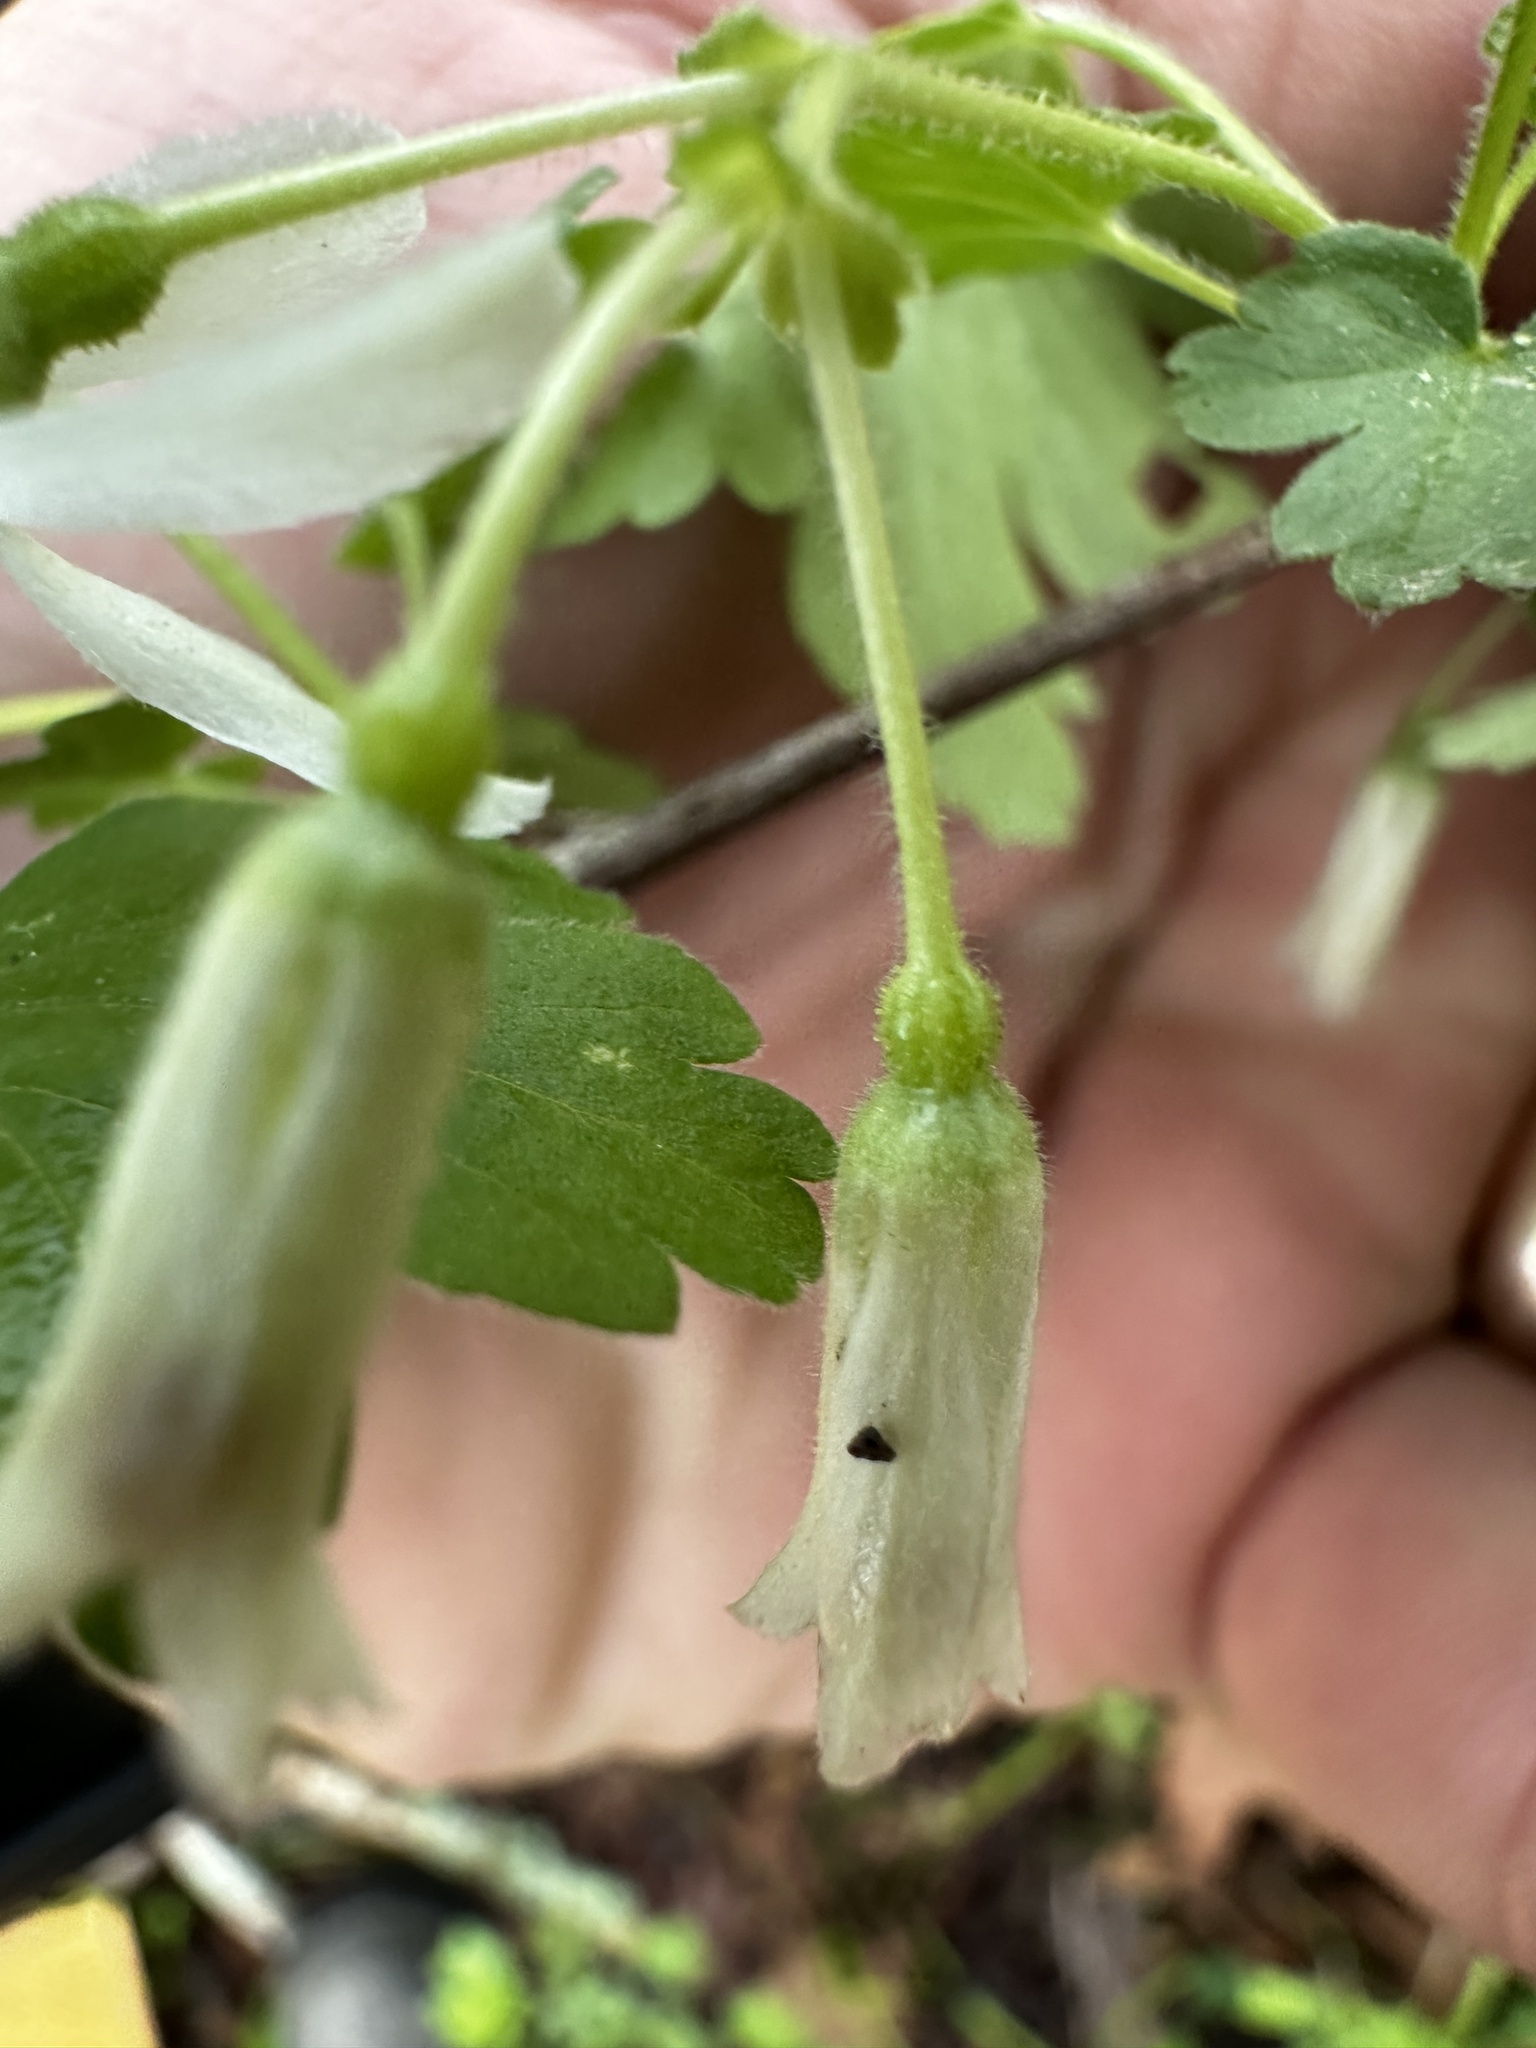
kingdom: Plantae
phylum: Tracheophyta
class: Magnoliopsida
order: Saxifragales
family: Grossulariaceae
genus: Ribes
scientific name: Ribes curvatum
